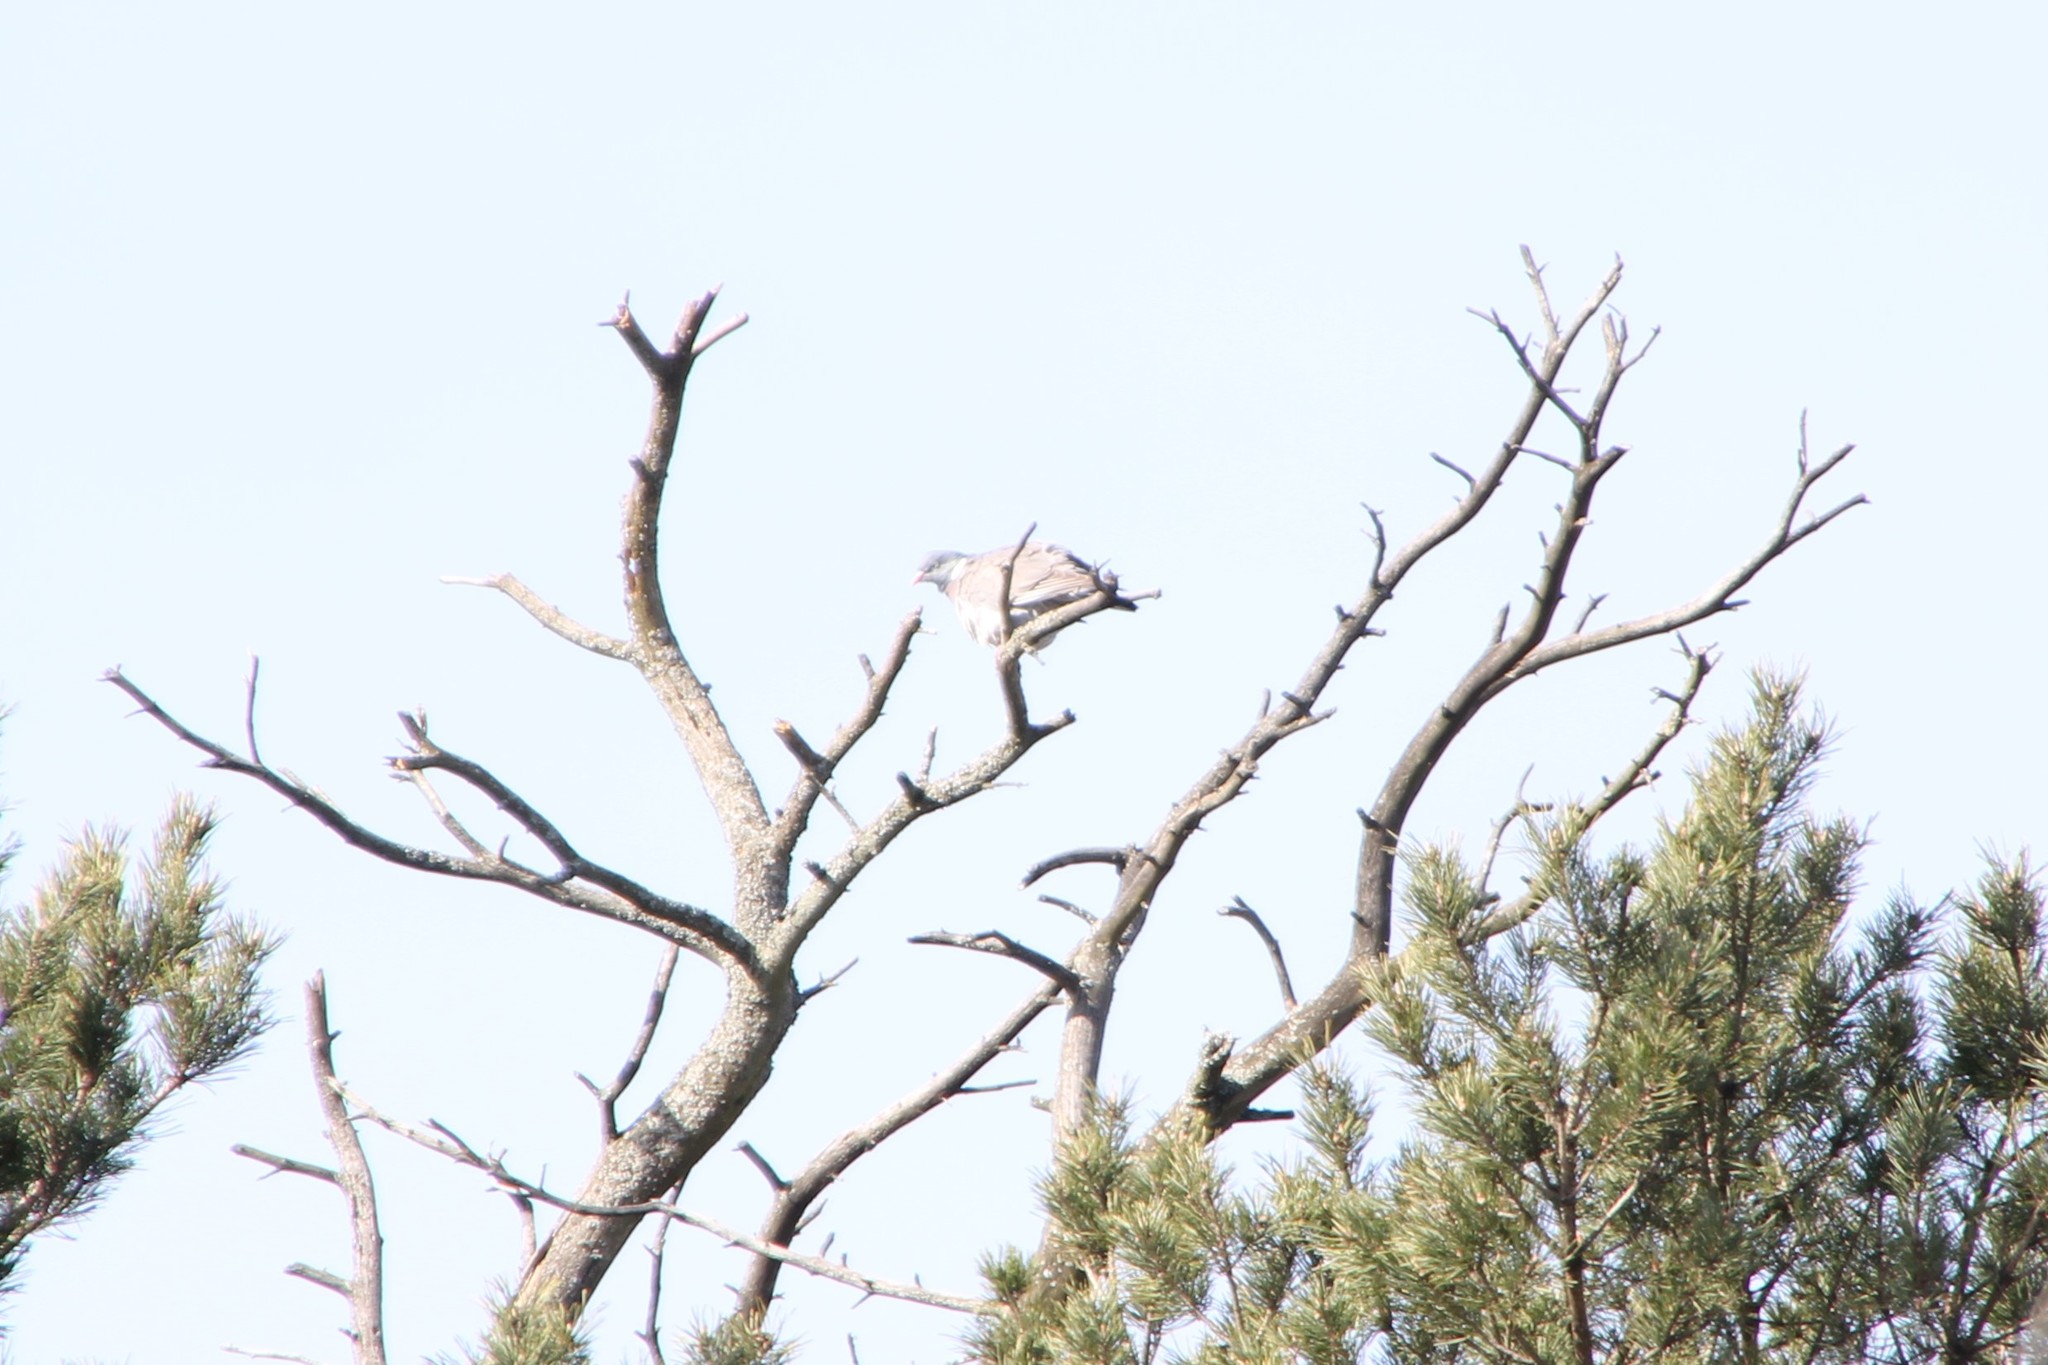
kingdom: Animalia
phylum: Chordata
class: Aves
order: Columbiformes
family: Columbidae
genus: Columba
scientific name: Columba palumbus
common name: Common wood pigeon
